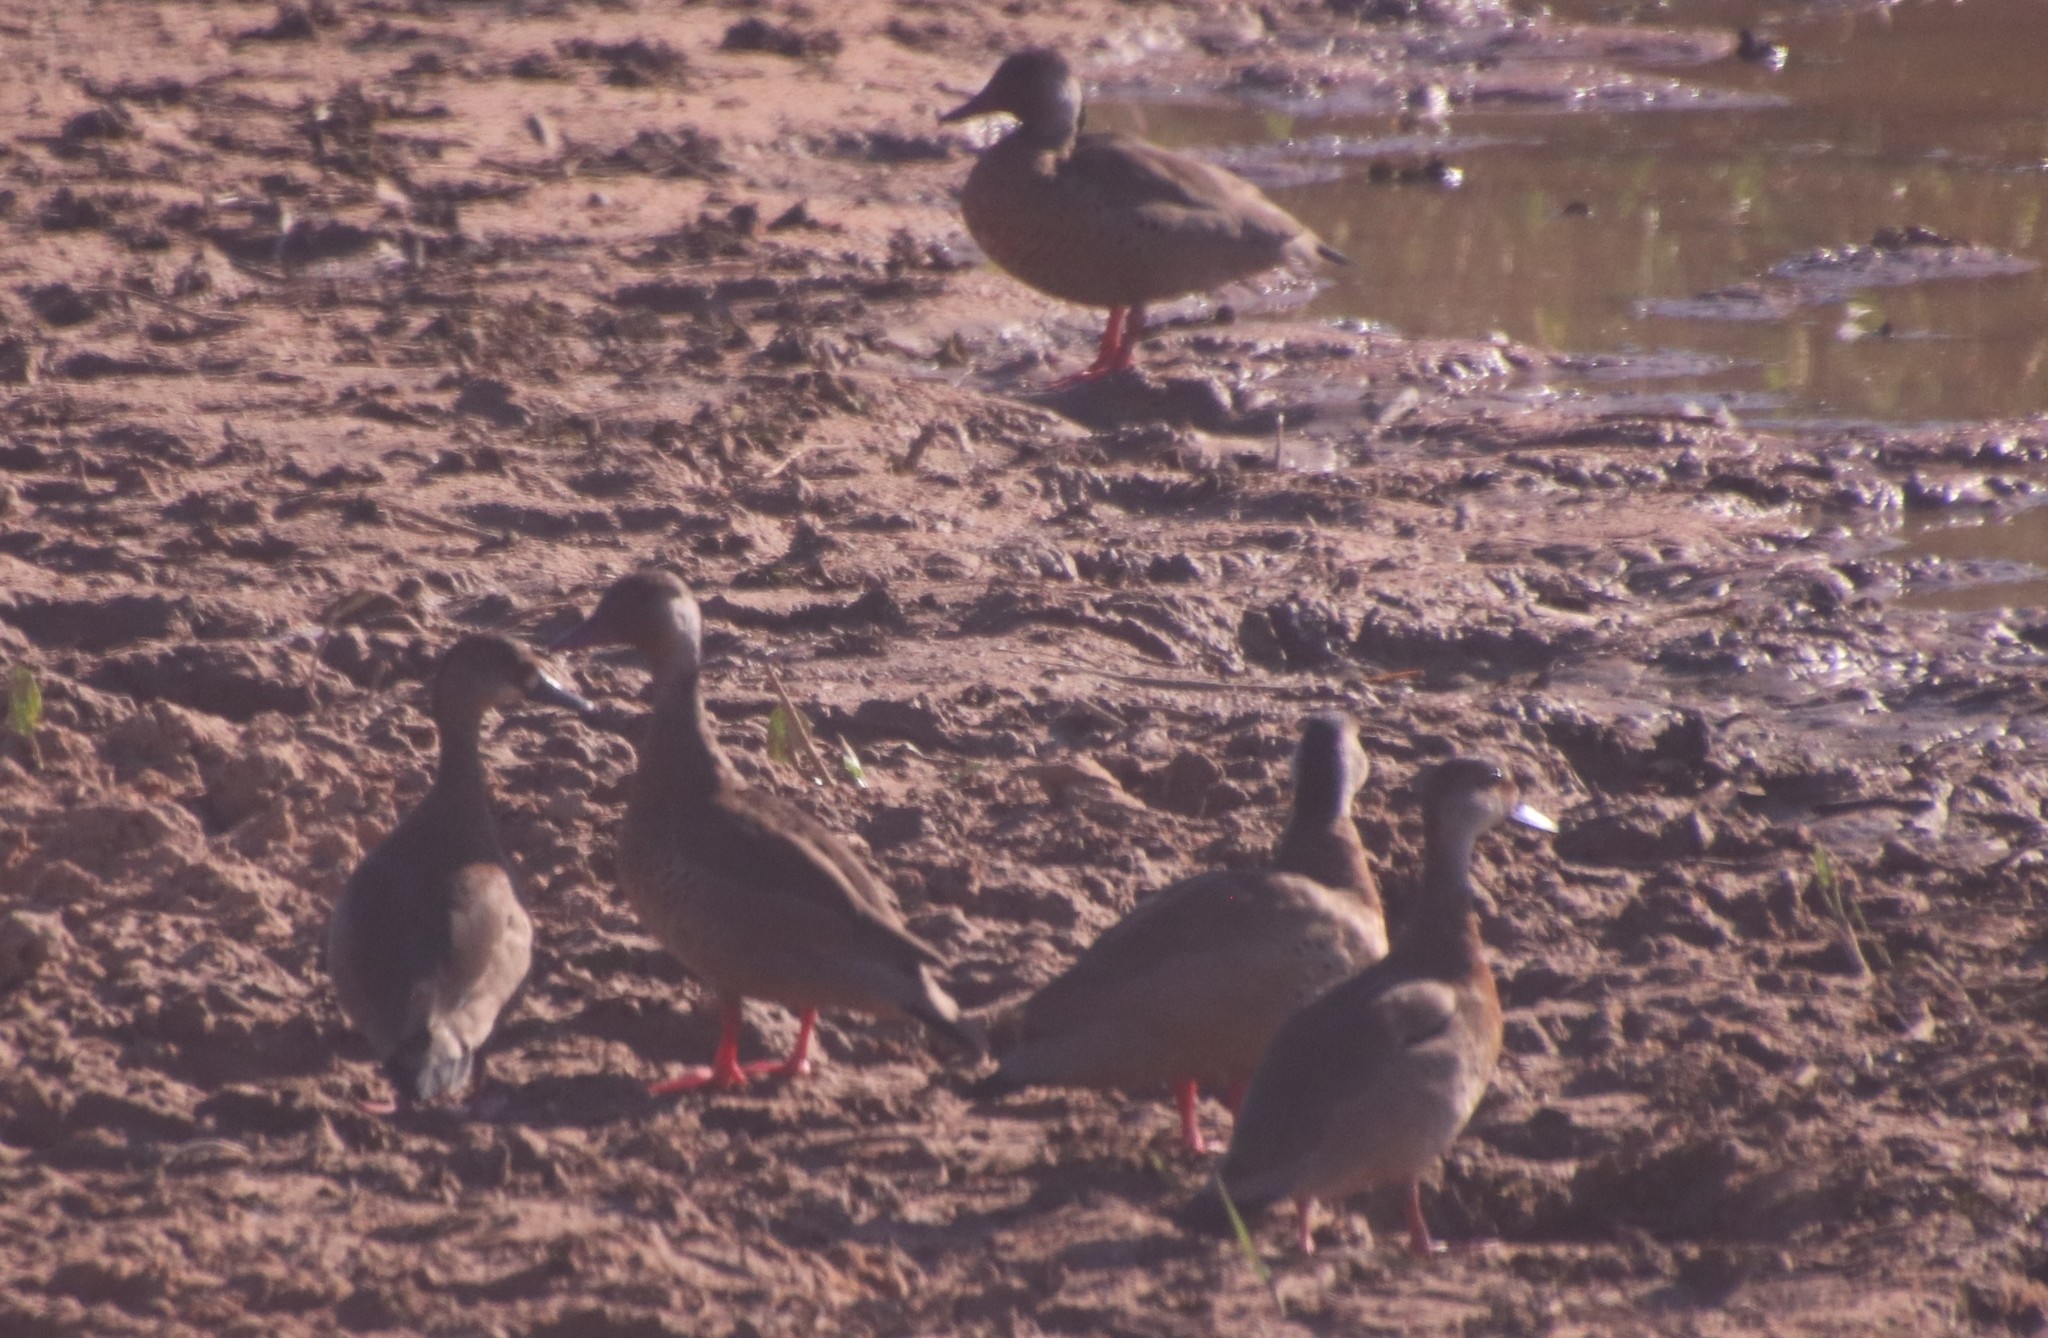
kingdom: Animalia
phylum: Chordata
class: Aves
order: Anseriformes
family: Anatidae
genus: Amazonetta
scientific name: Amazonetta brasiliensis
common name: Brazilian teal
